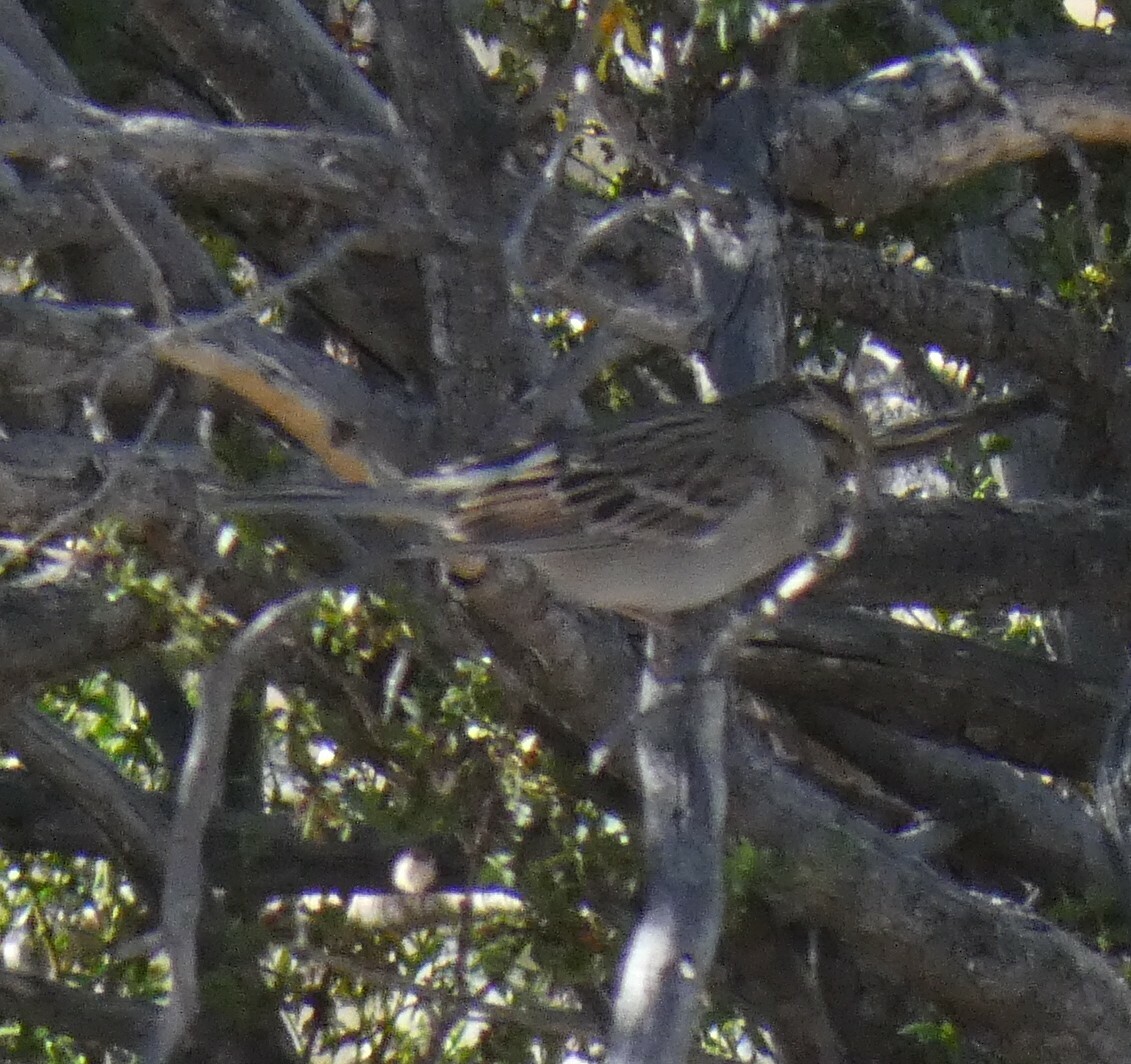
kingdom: Animalia
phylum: Chordata
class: Aves
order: Passeriformes
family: Passerellidae
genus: Spizella
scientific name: Spizella passerina
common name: Chipping sparrow
